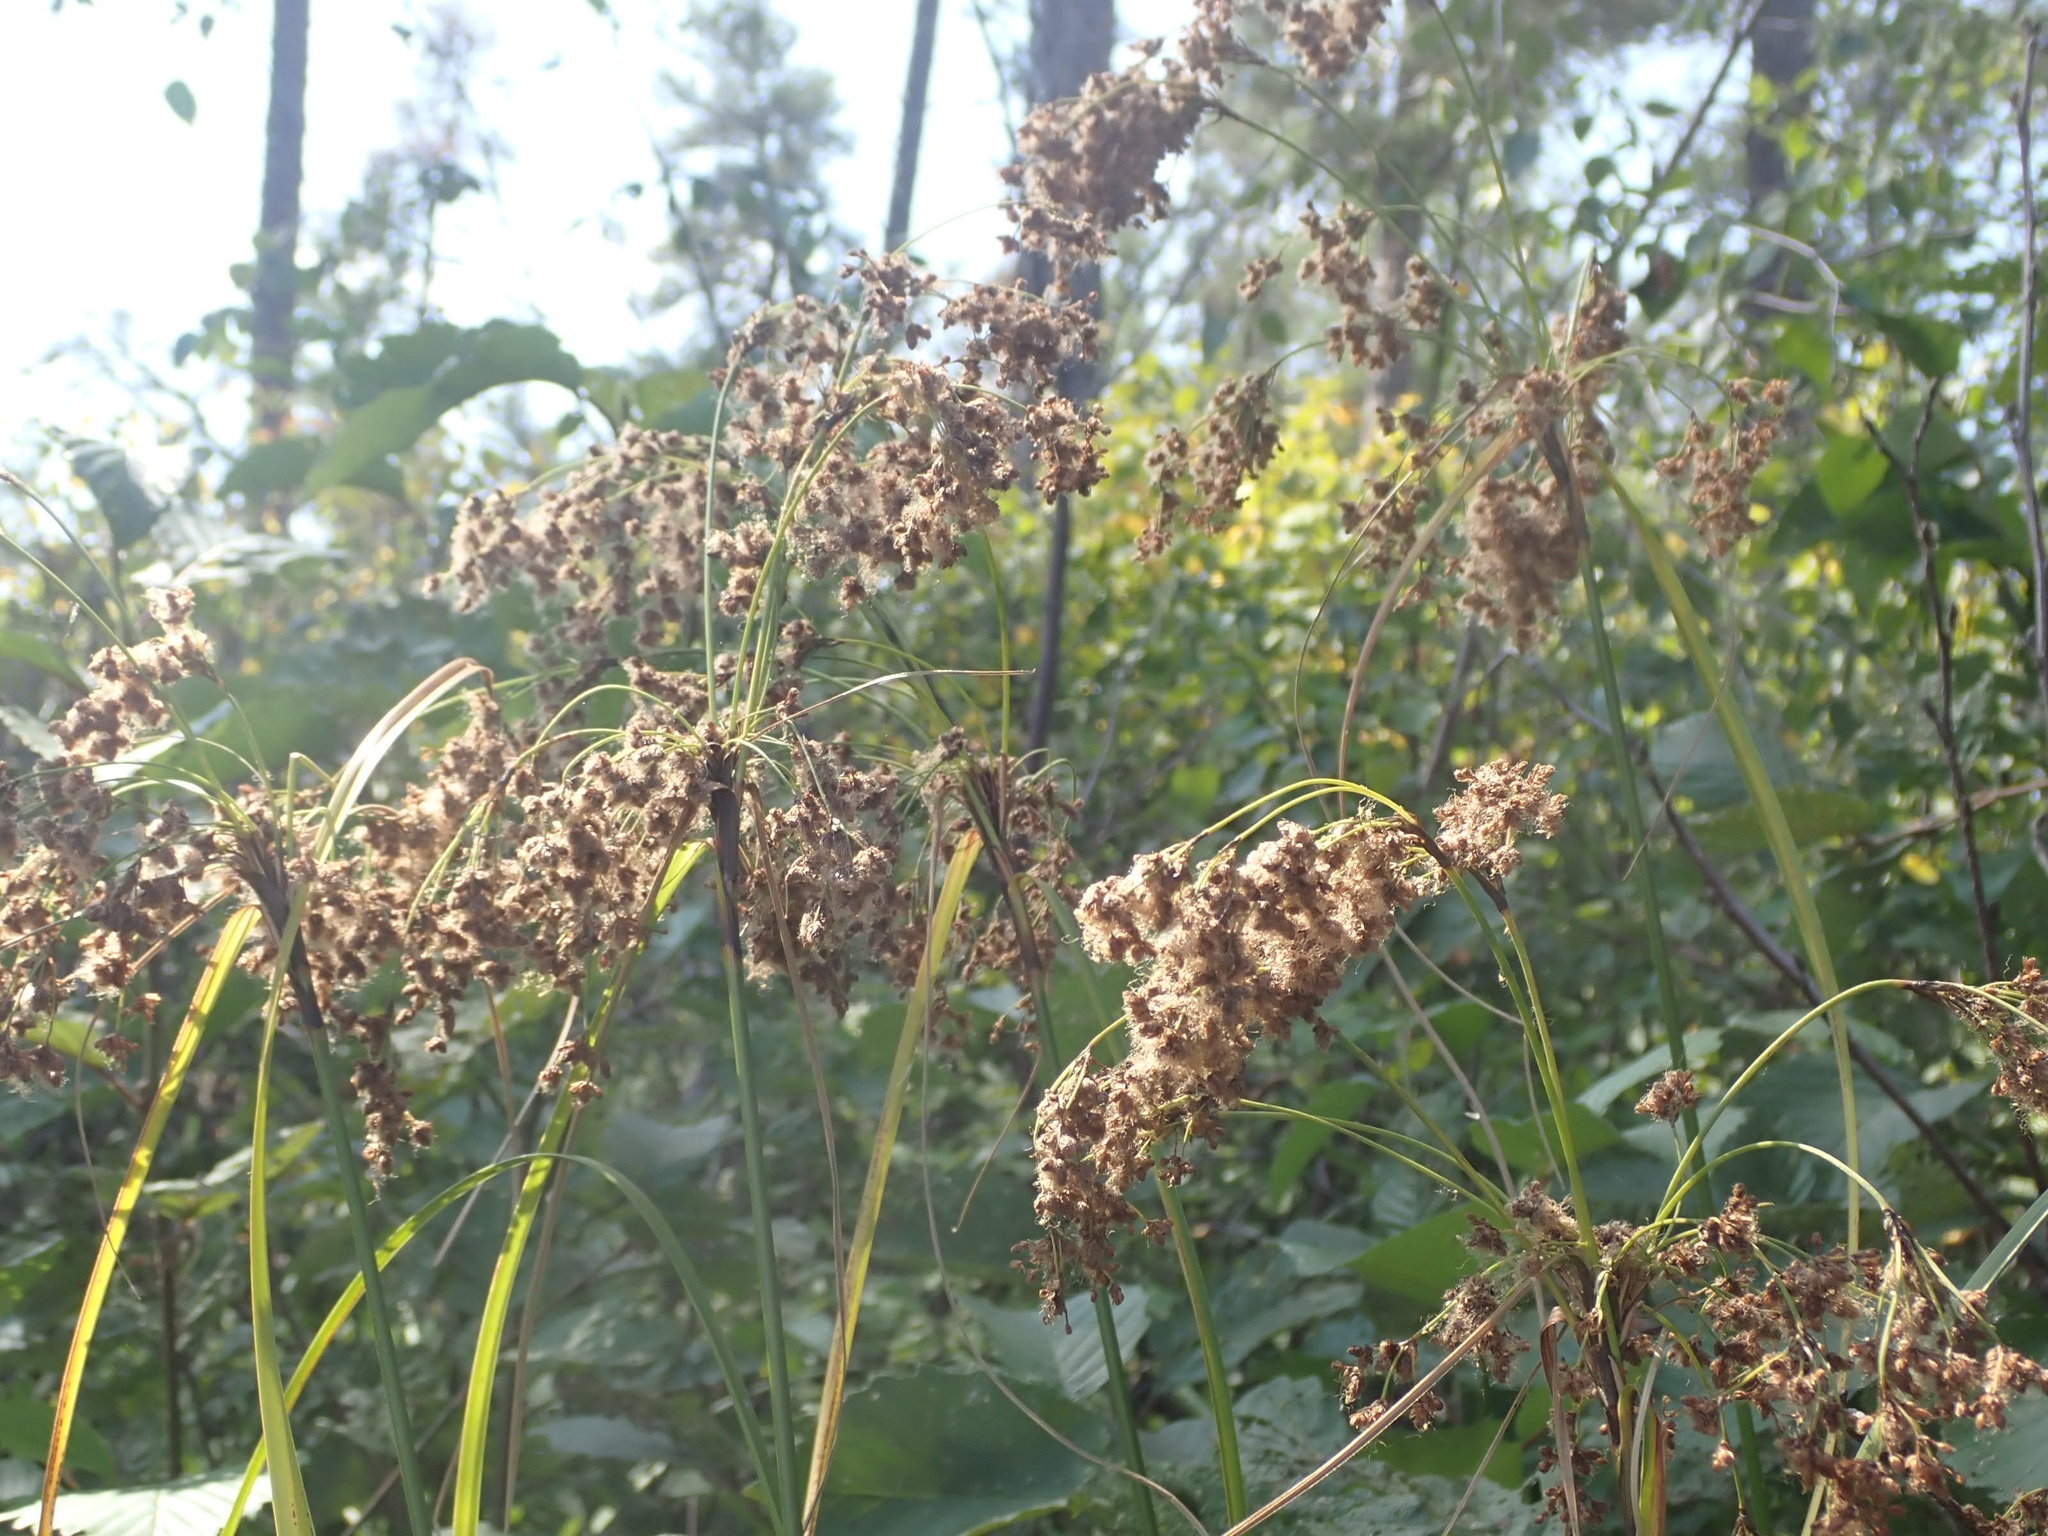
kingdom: Plantae
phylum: Tracheophyta
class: Liliopsida
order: Poales
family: Cyperaceae
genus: Scirpus
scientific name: Scirpus cyperinus
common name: Black-sheathed bulrush
